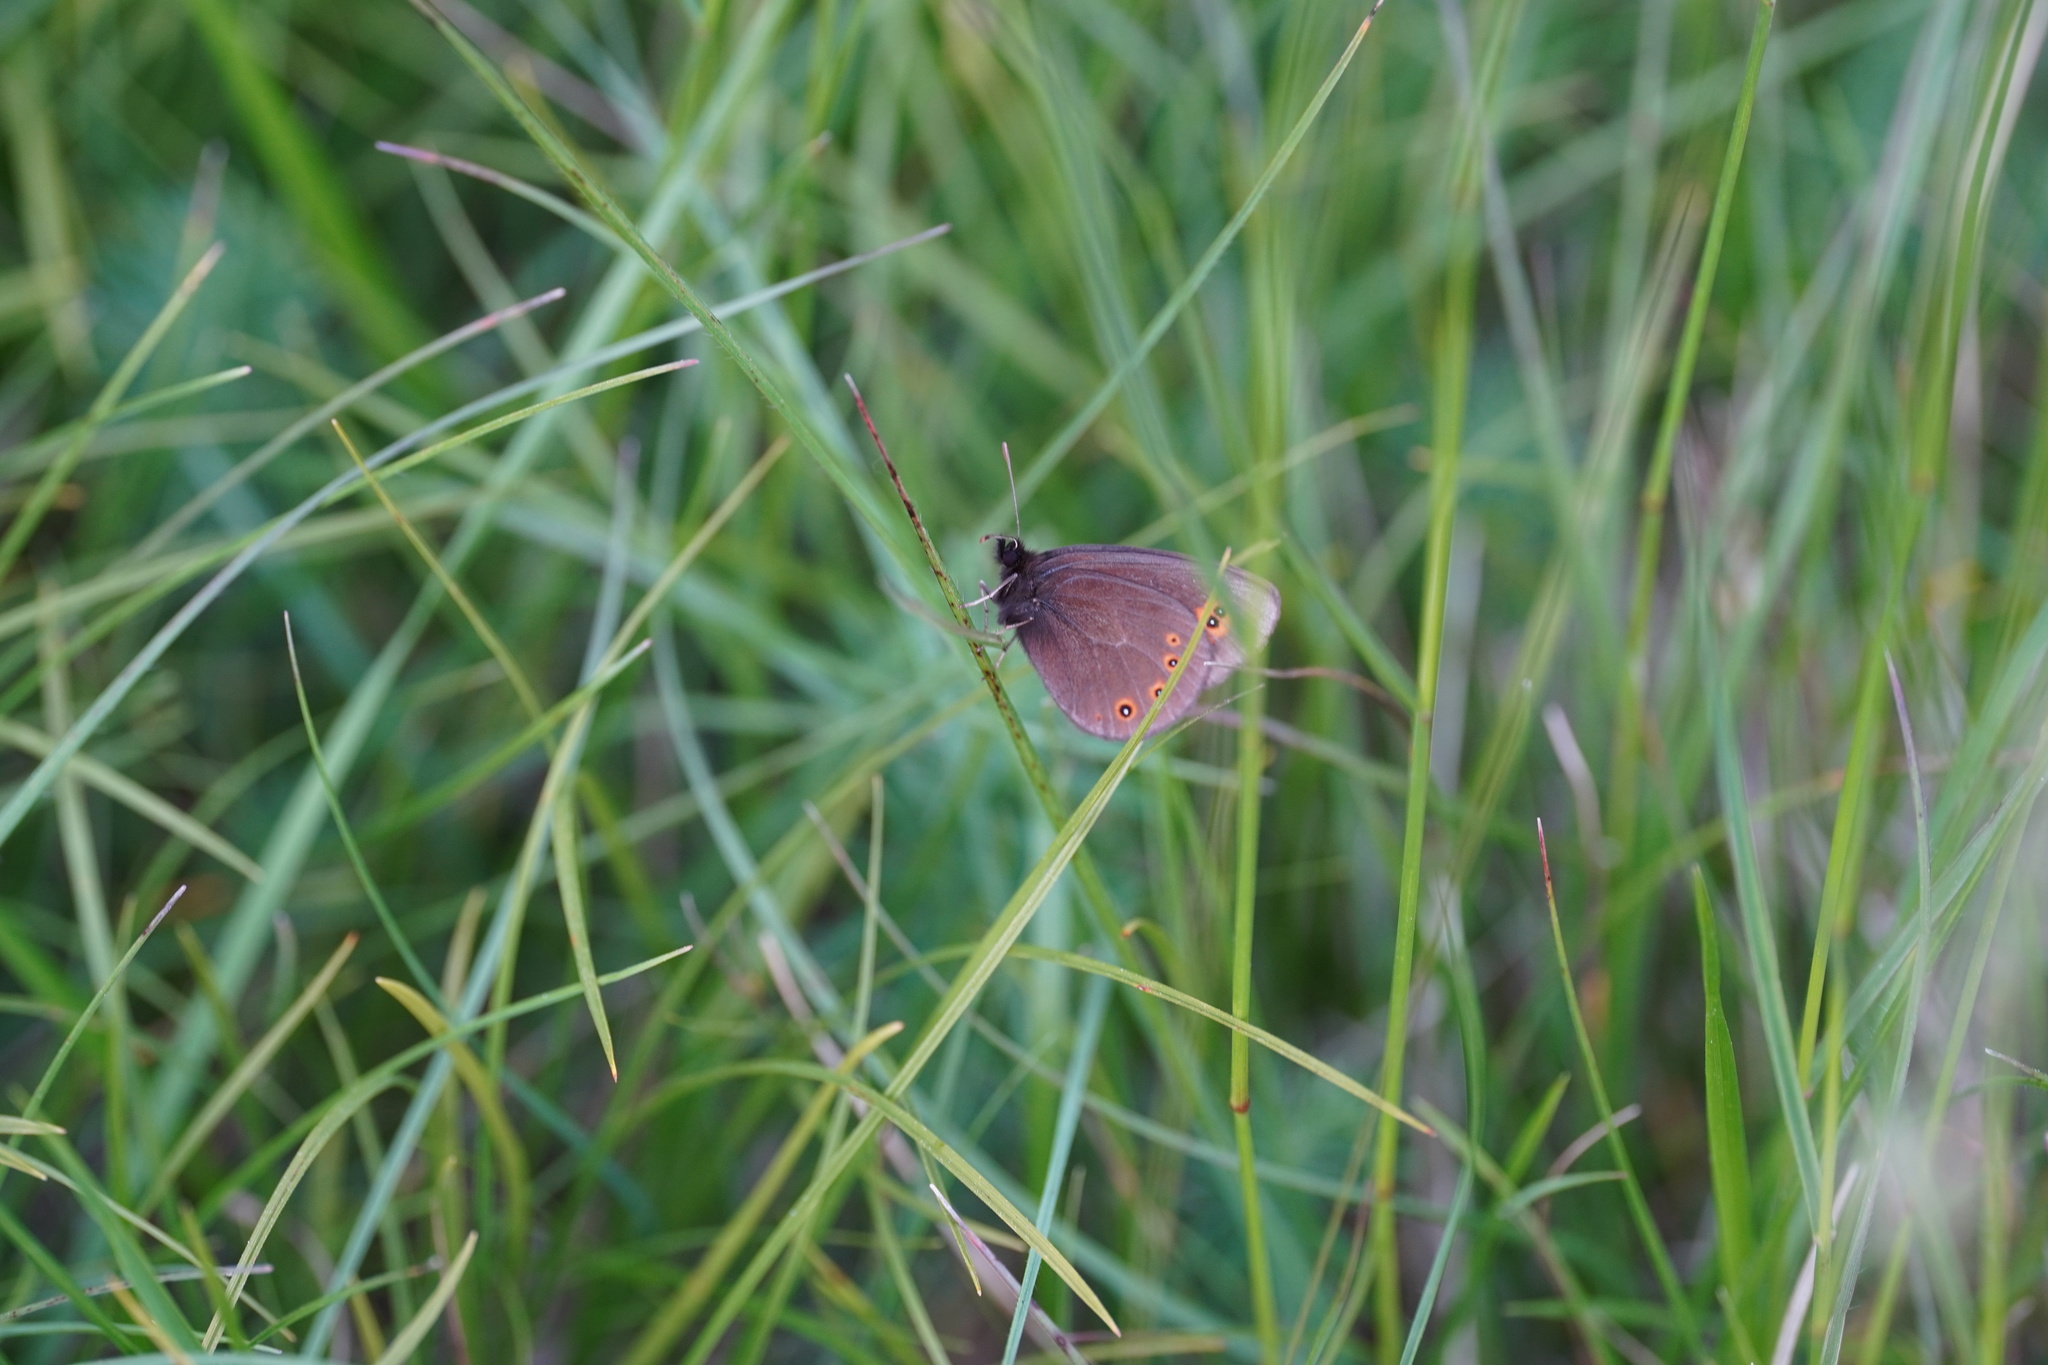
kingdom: Animalia
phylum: Arthropoda
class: Insecta
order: Lepidoptera
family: Nymphalidae
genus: Erebia
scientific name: Erebia medusa
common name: Woodland ringlet
